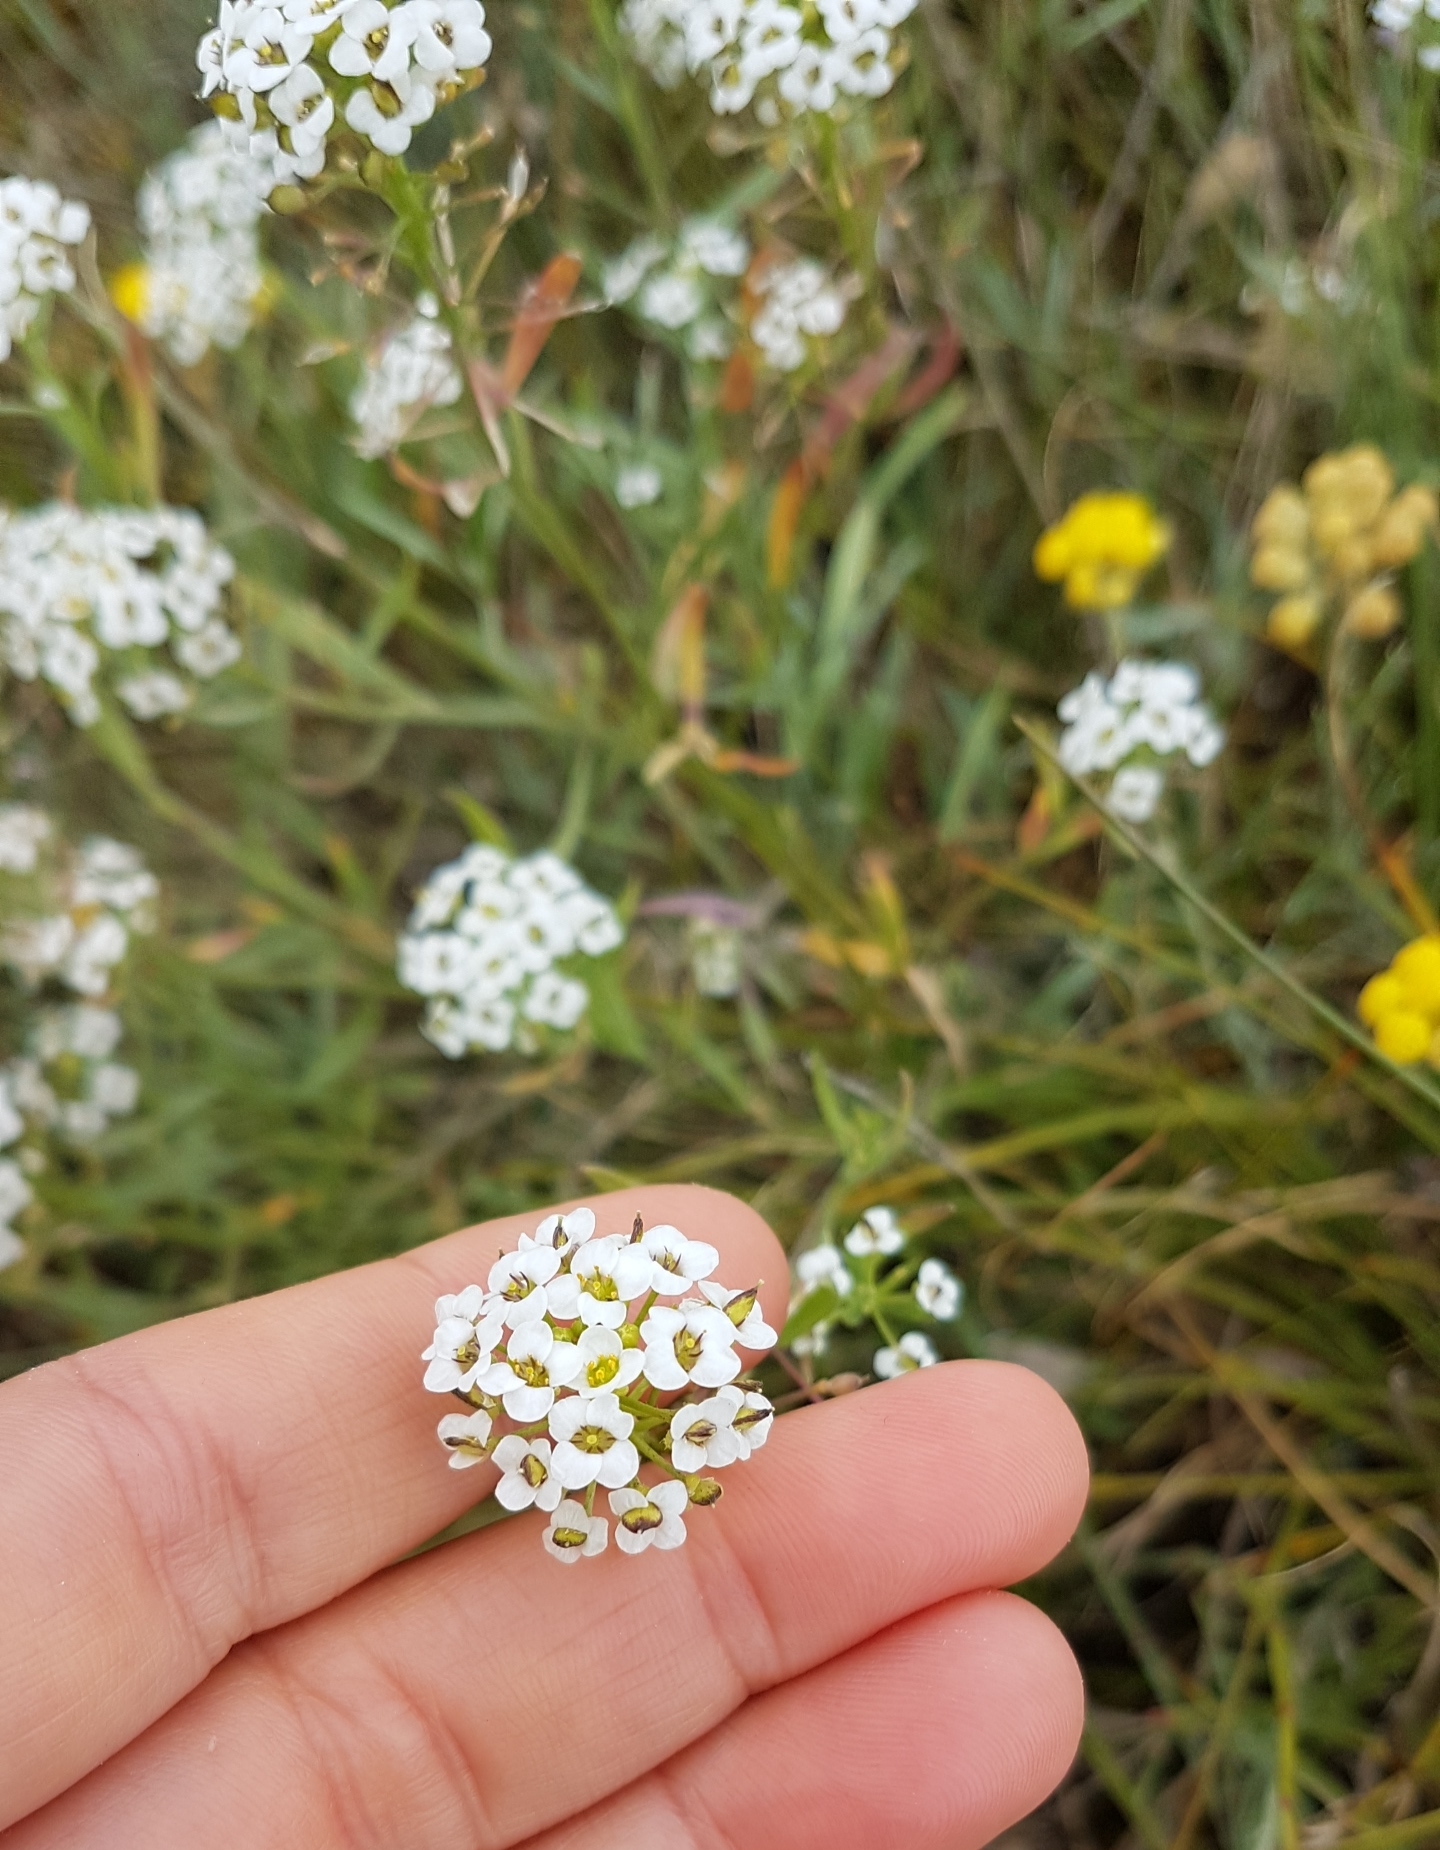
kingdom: Plantae
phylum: Tracheophyta
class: Magnoliopsida
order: Brassicales
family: Brassicaceae
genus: Lobularia
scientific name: Lobularia maritima
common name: Sweet alison
